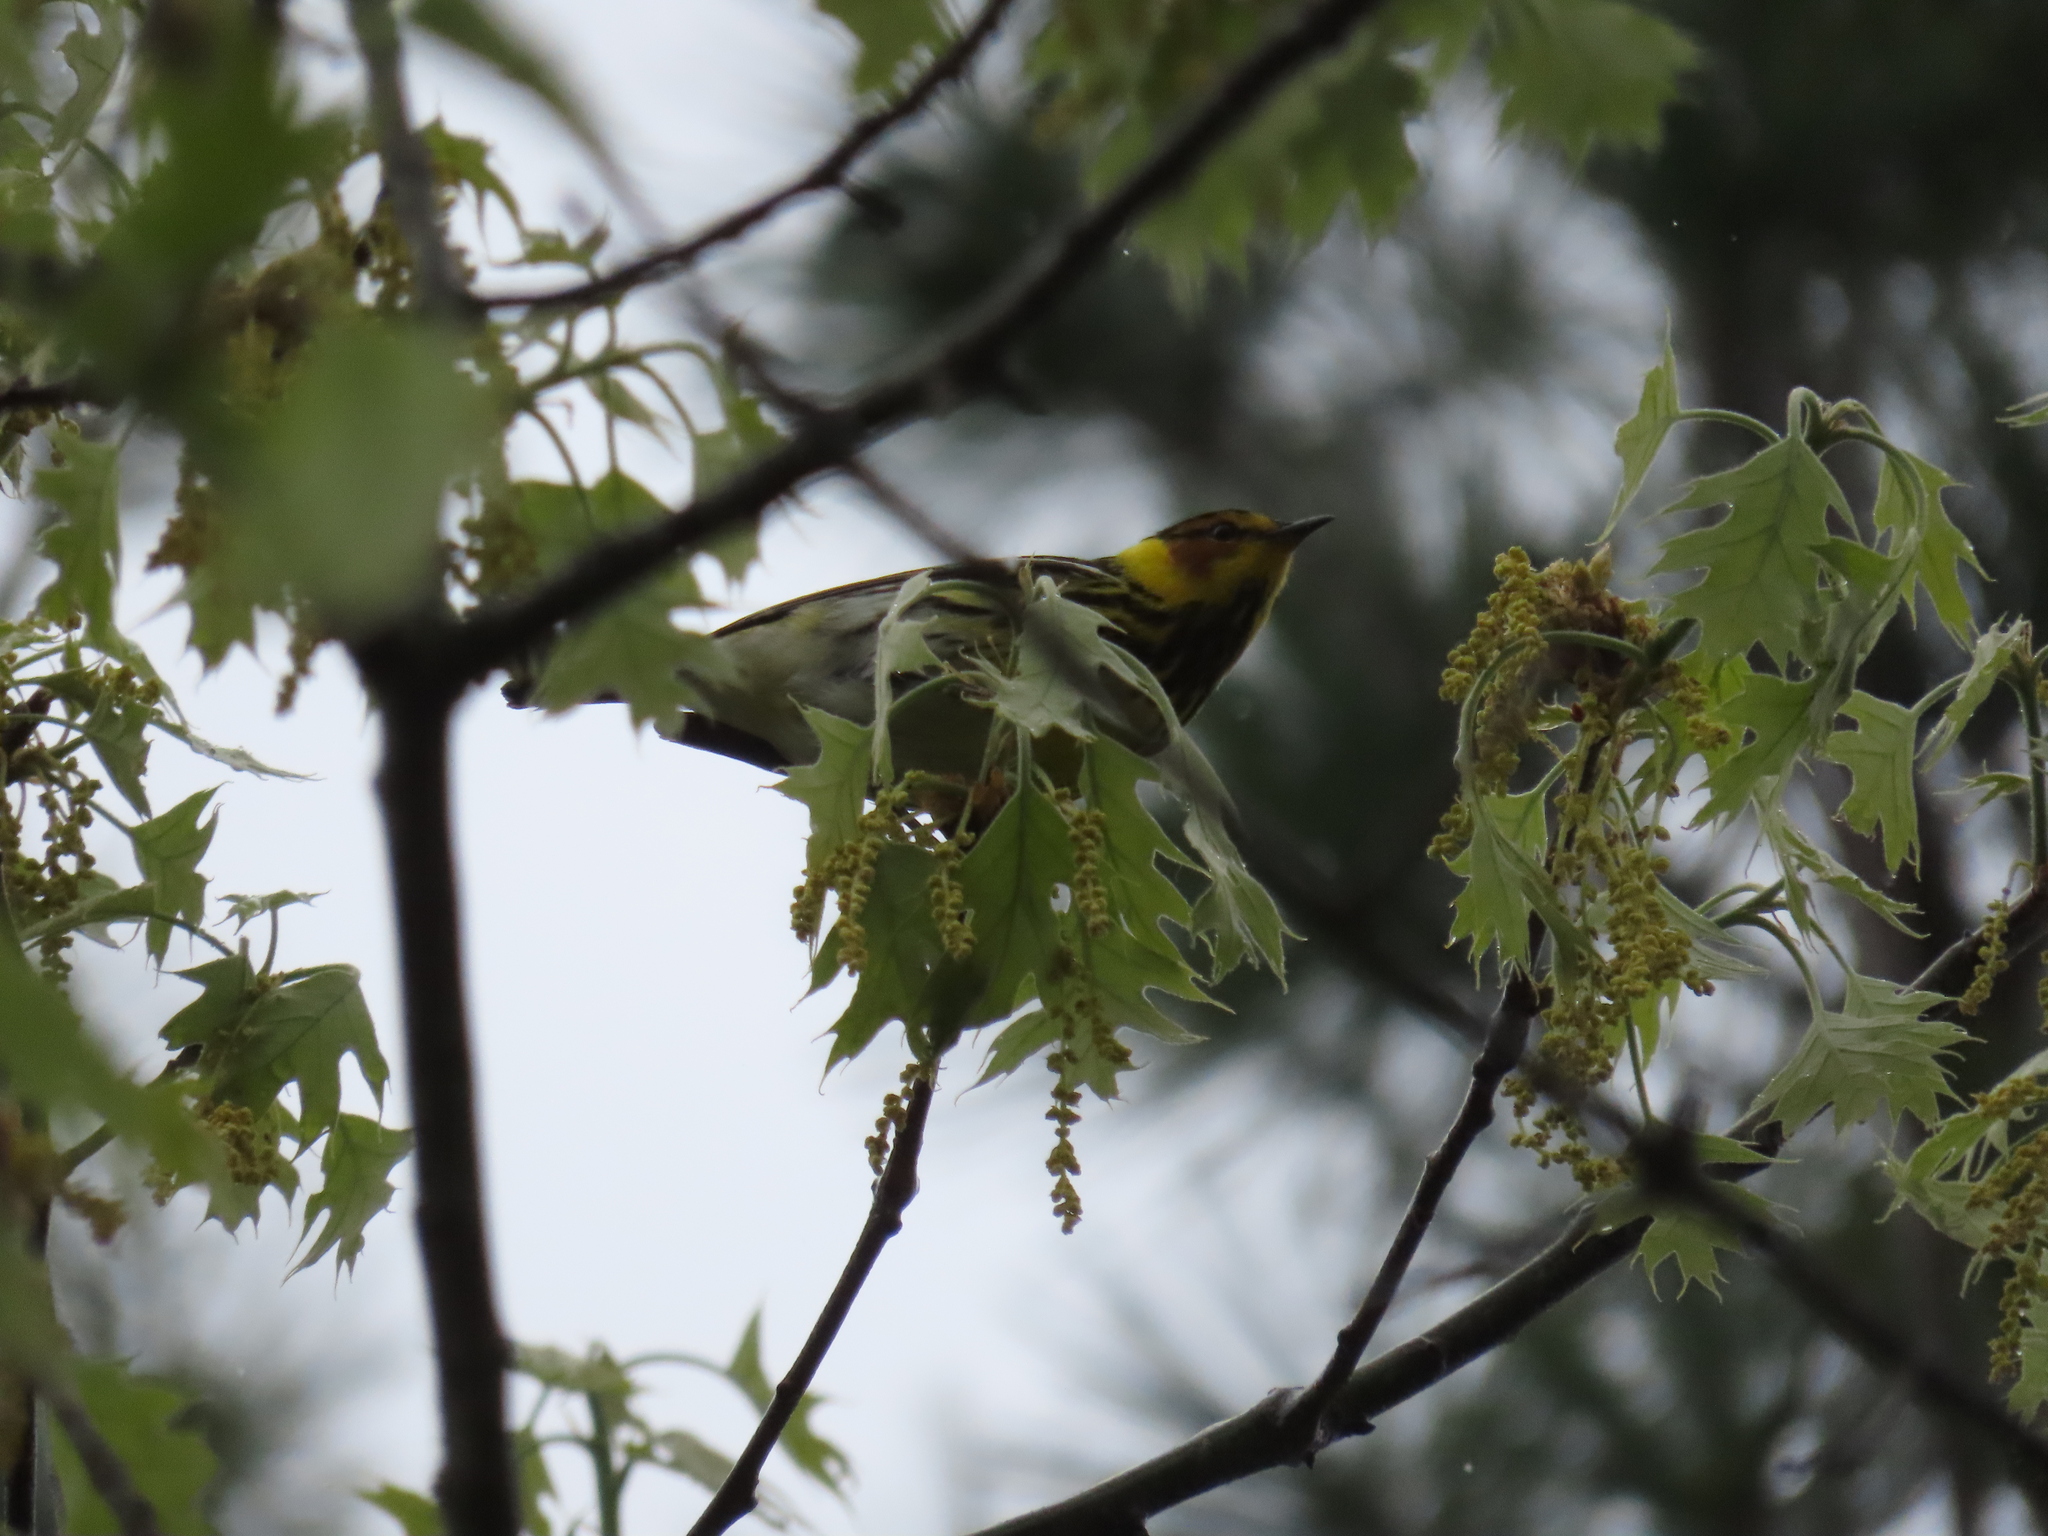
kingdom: Animalia
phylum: Chordata
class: Aves
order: Passeriformes
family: Parulidae
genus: Setophaga
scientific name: Setophaga tigrina
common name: Cape may warbler
